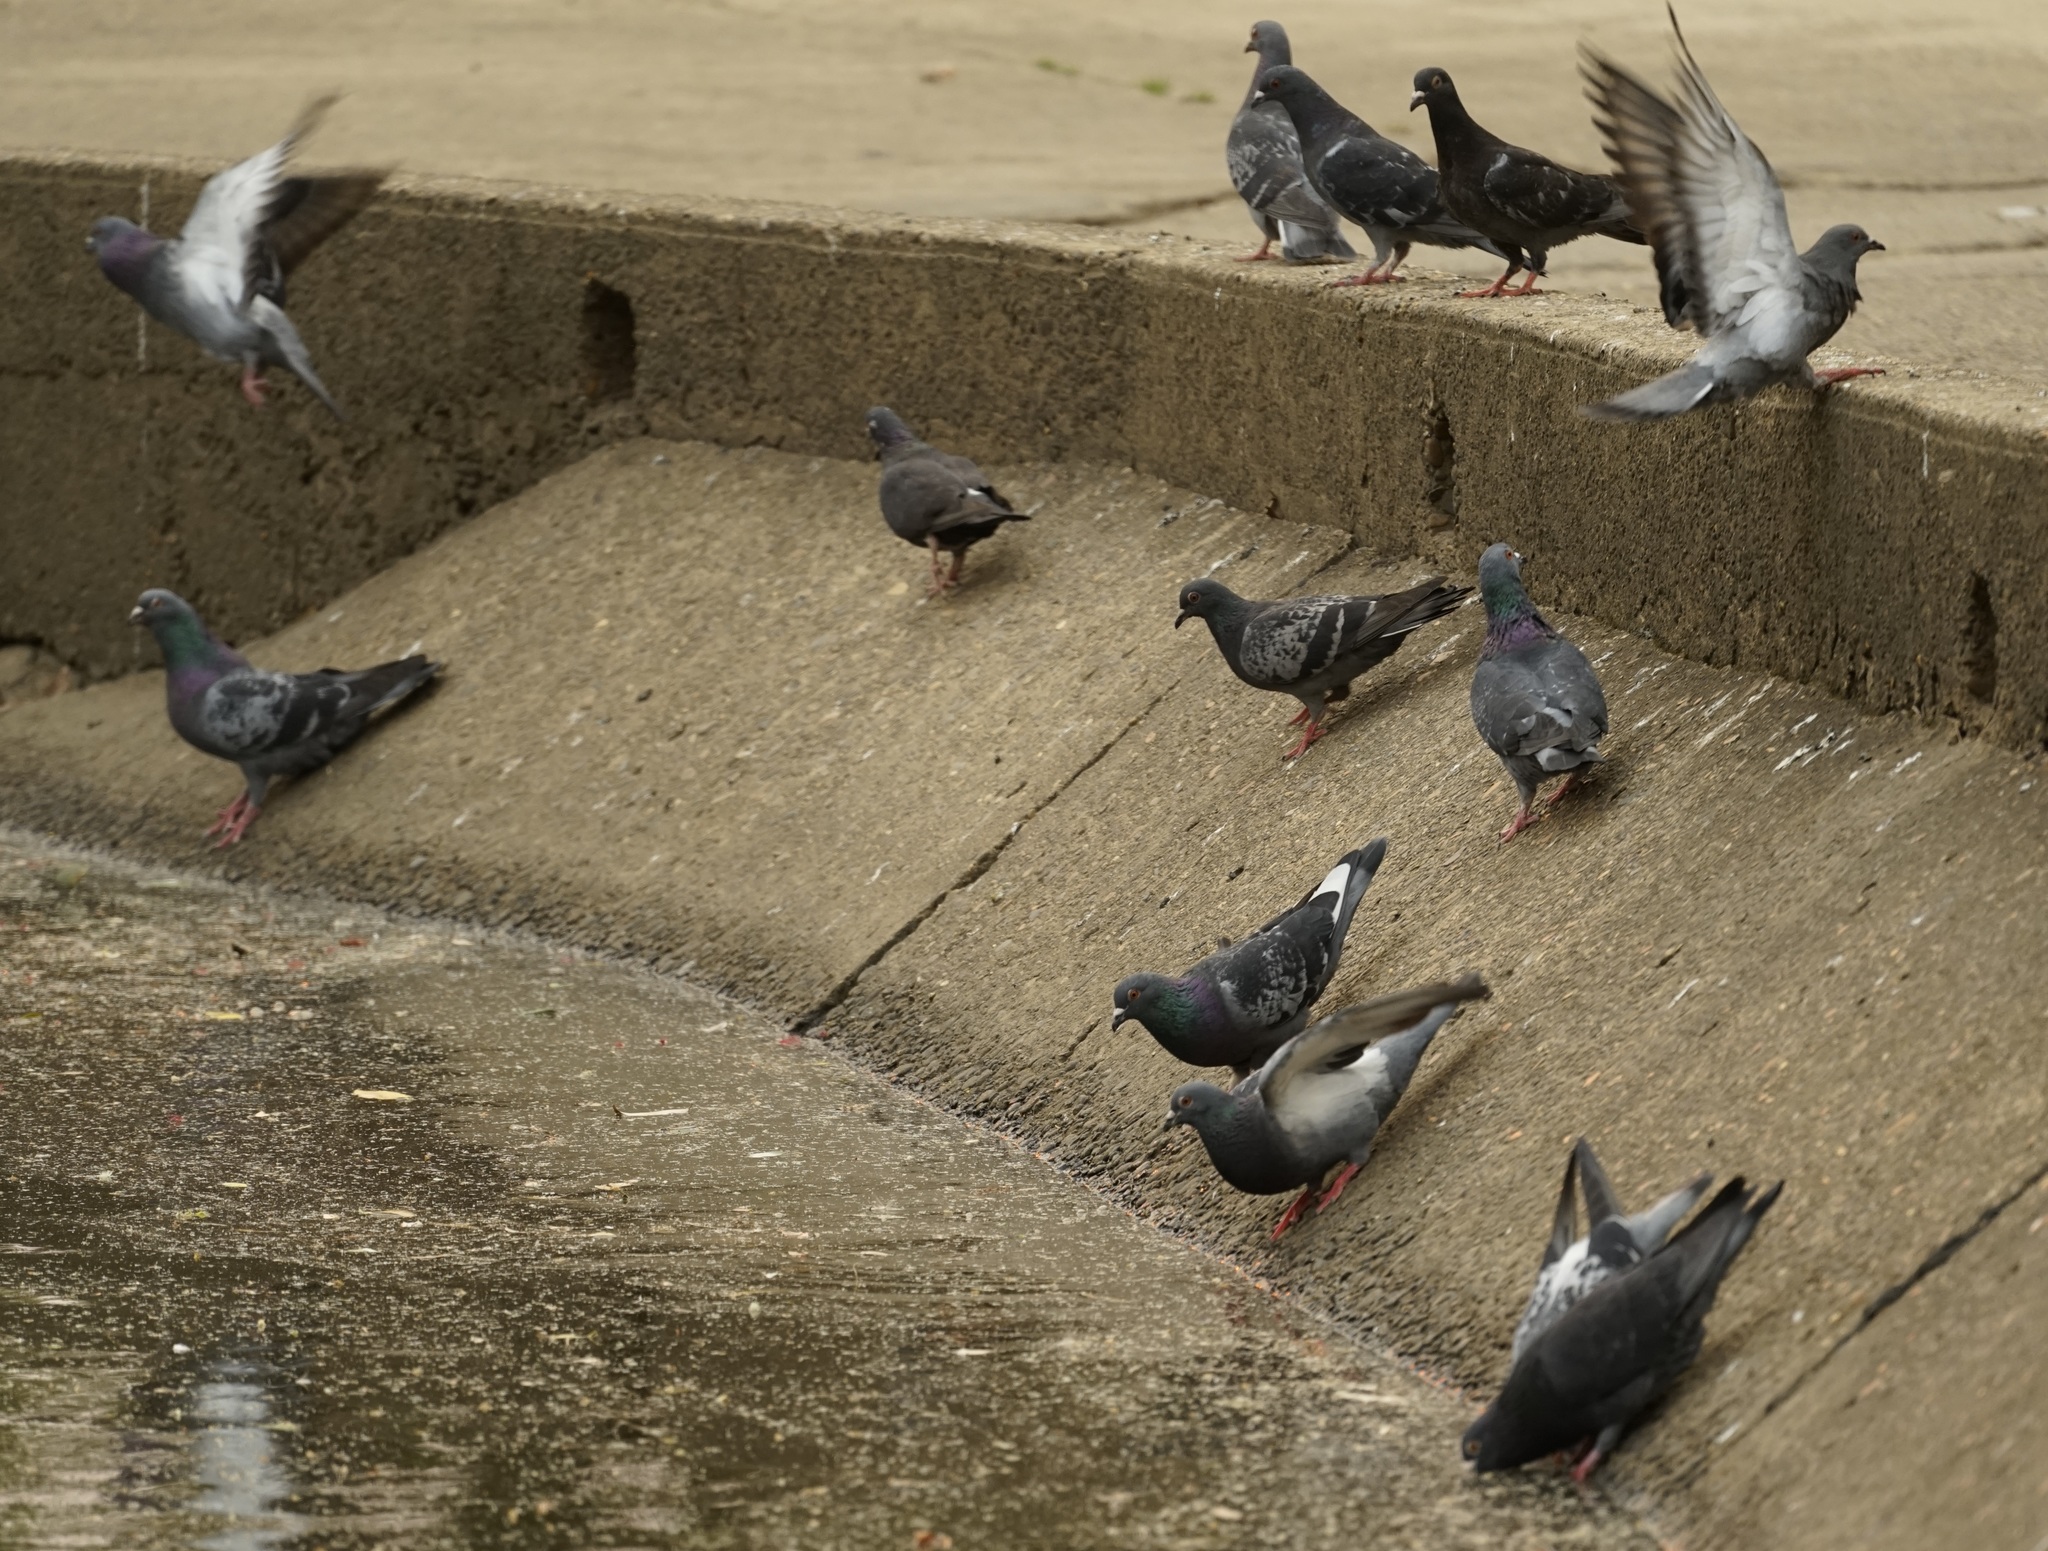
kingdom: Animalia
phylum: Chordata
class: Aves
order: Columbiformes
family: Columbidae
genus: Columba
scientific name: Columba livia
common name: Rock pigeon
